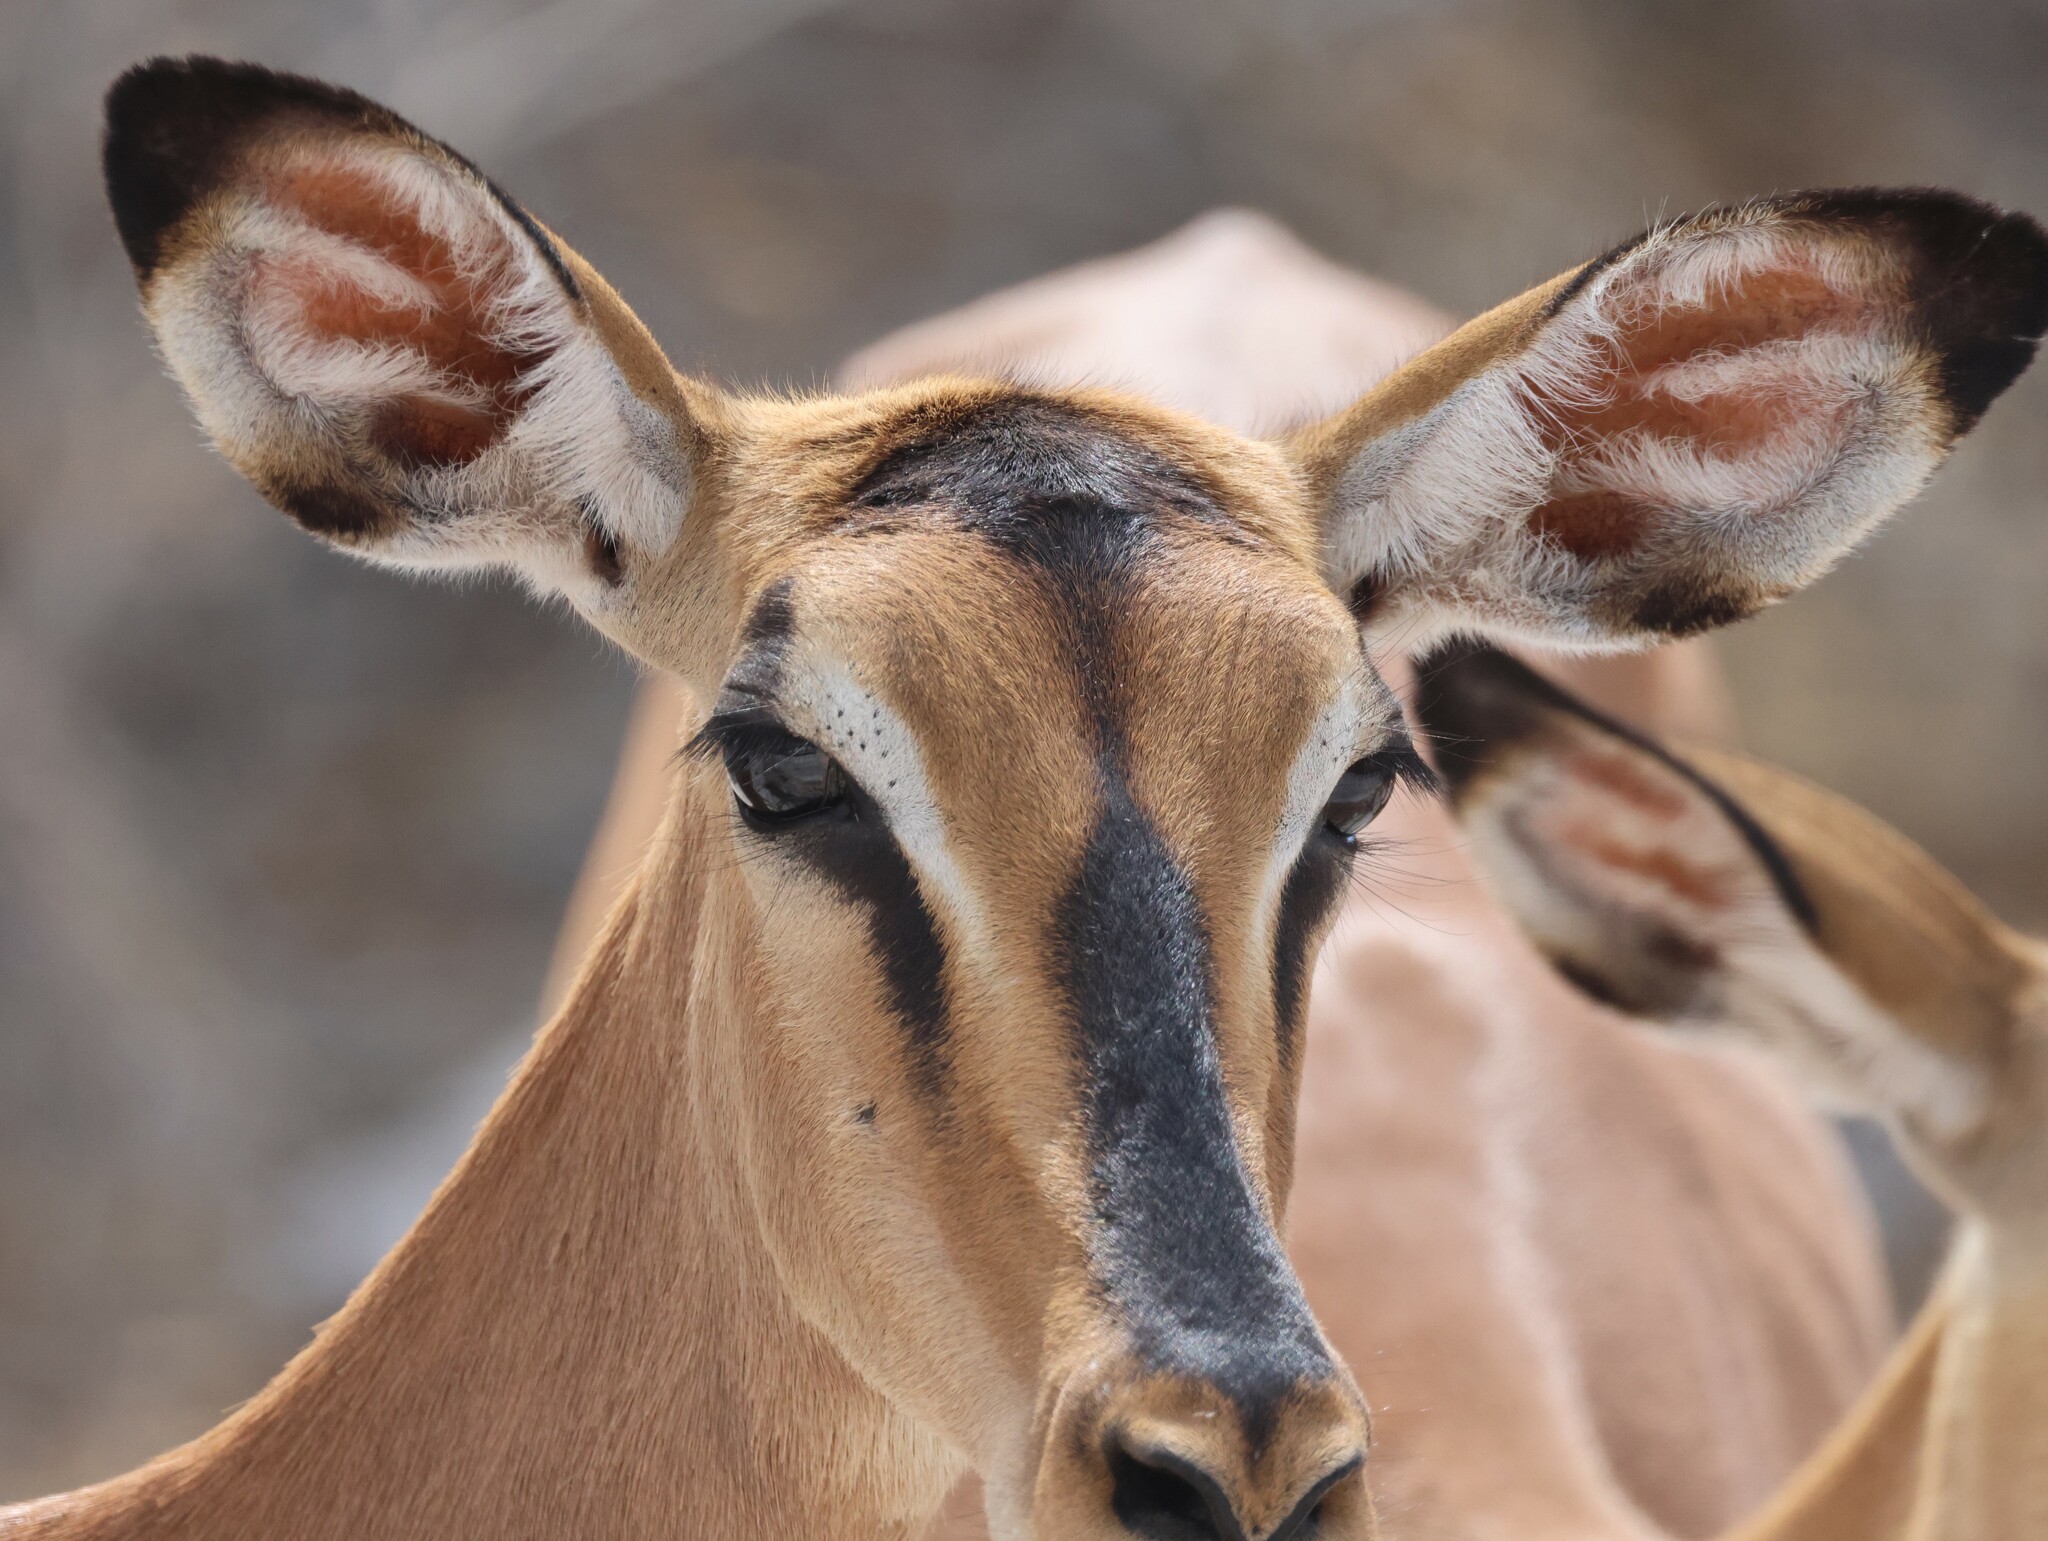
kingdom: Animalia
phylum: Chordata
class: Mammalia
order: Artiodactyla
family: Bovidae
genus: Aepyceros
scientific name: Aepyceros melampus
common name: Impala
